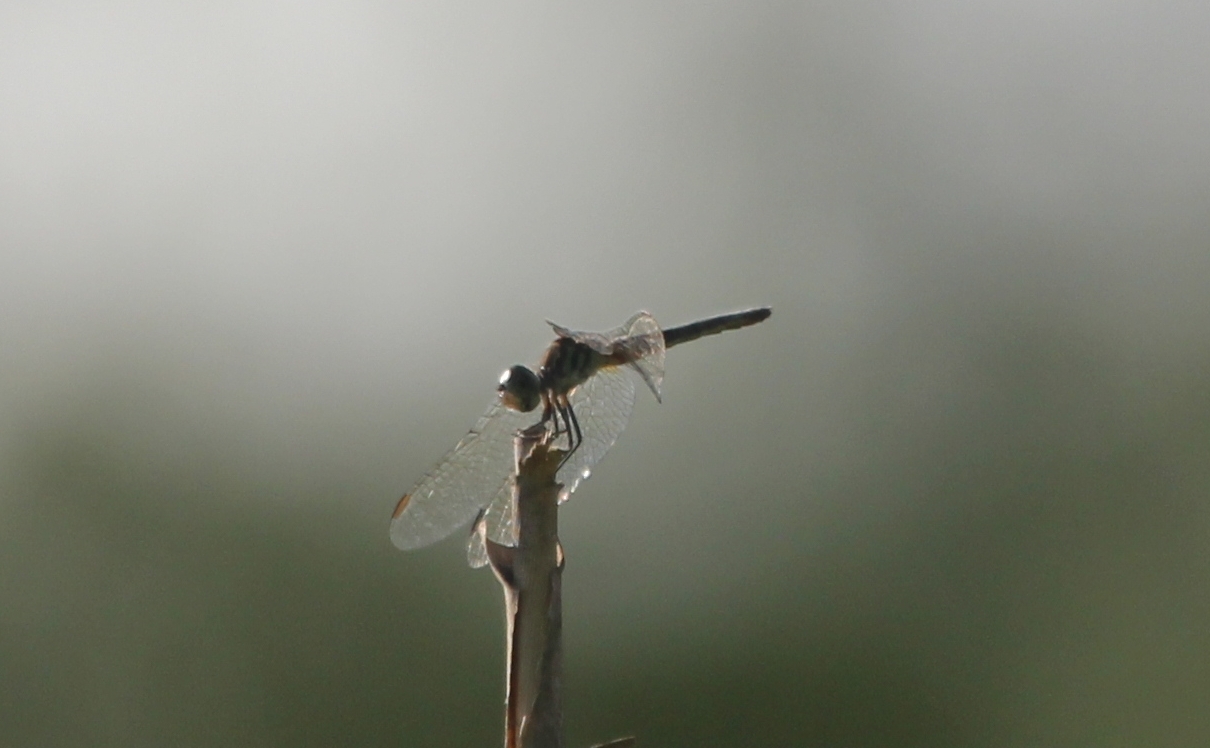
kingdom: Animalia
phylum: Arthropoda
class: Insecta
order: Odonata
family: Libellulidae
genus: Pachydiplax
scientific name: Pachydiplax longipennis
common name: Blue dasher
